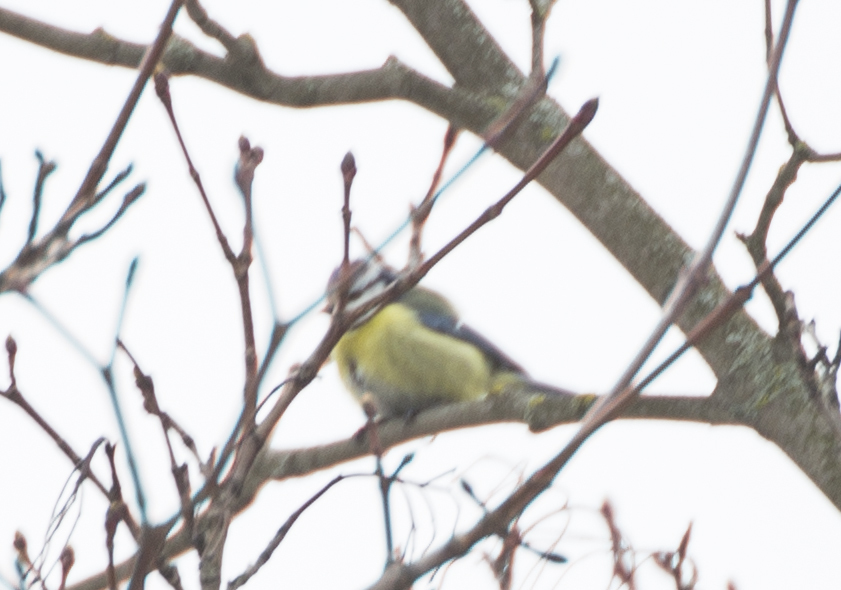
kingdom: Animalia
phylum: Chordata
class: Aves
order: Passeriformes
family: Paridae
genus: Cyanistes
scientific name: Cyanistes caeruleus
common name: Eurasian blue tit
